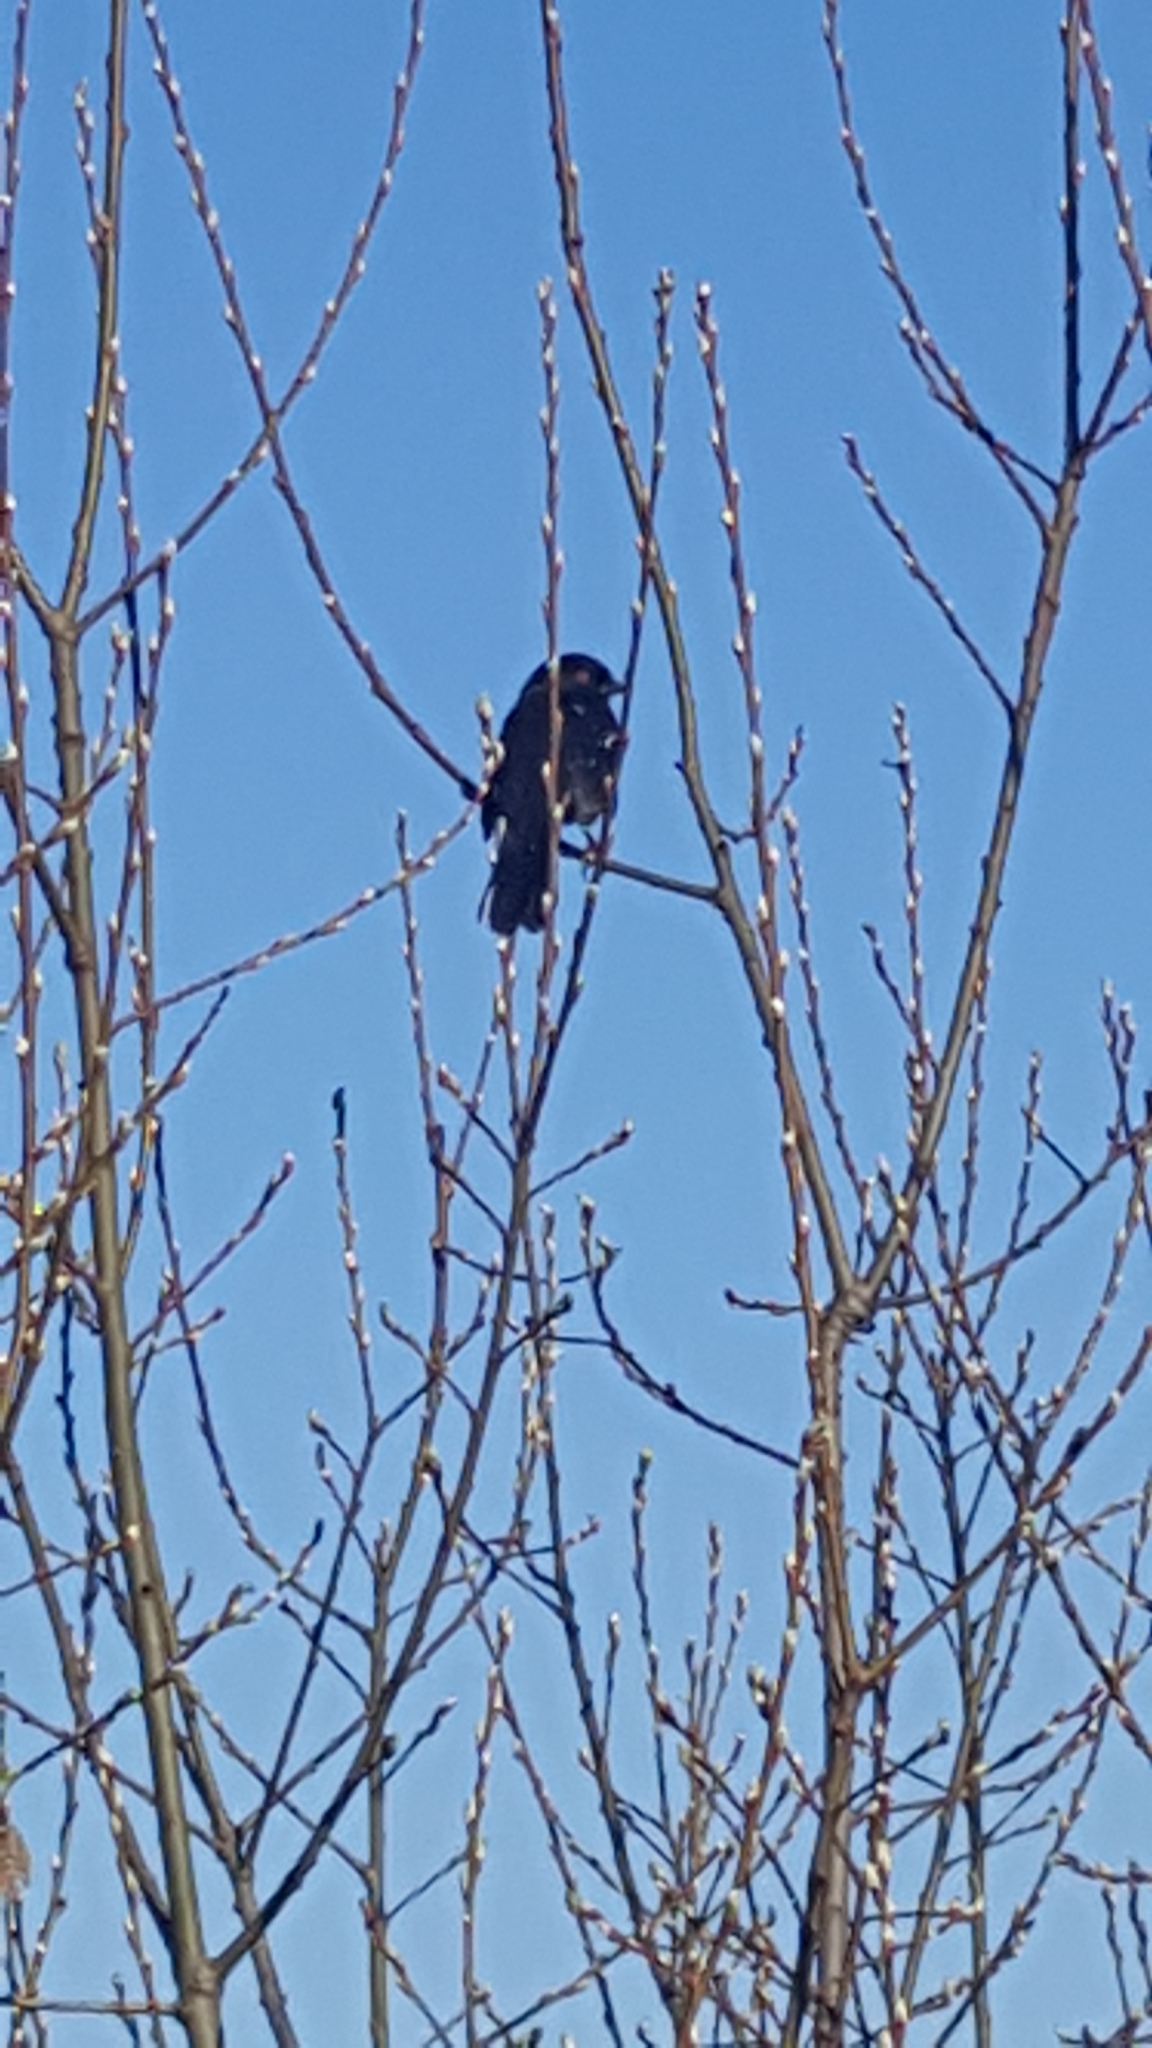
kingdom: Animalia
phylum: Chordata
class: Aves
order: Passeriformes
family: Passerellidae
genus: Pipilo
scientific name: Pipilo maculatus
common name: Spotted towhee
